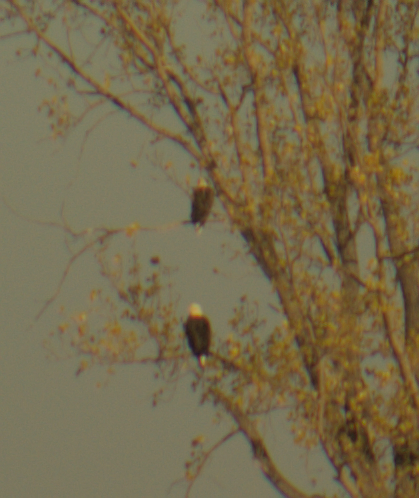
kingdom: Animalia
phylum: Chordata
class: Aves
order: Accipitriformes
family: Accipitridae
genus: Haliaeetus
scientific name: Haliaeetus leucocephalus
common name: Bald eagle
